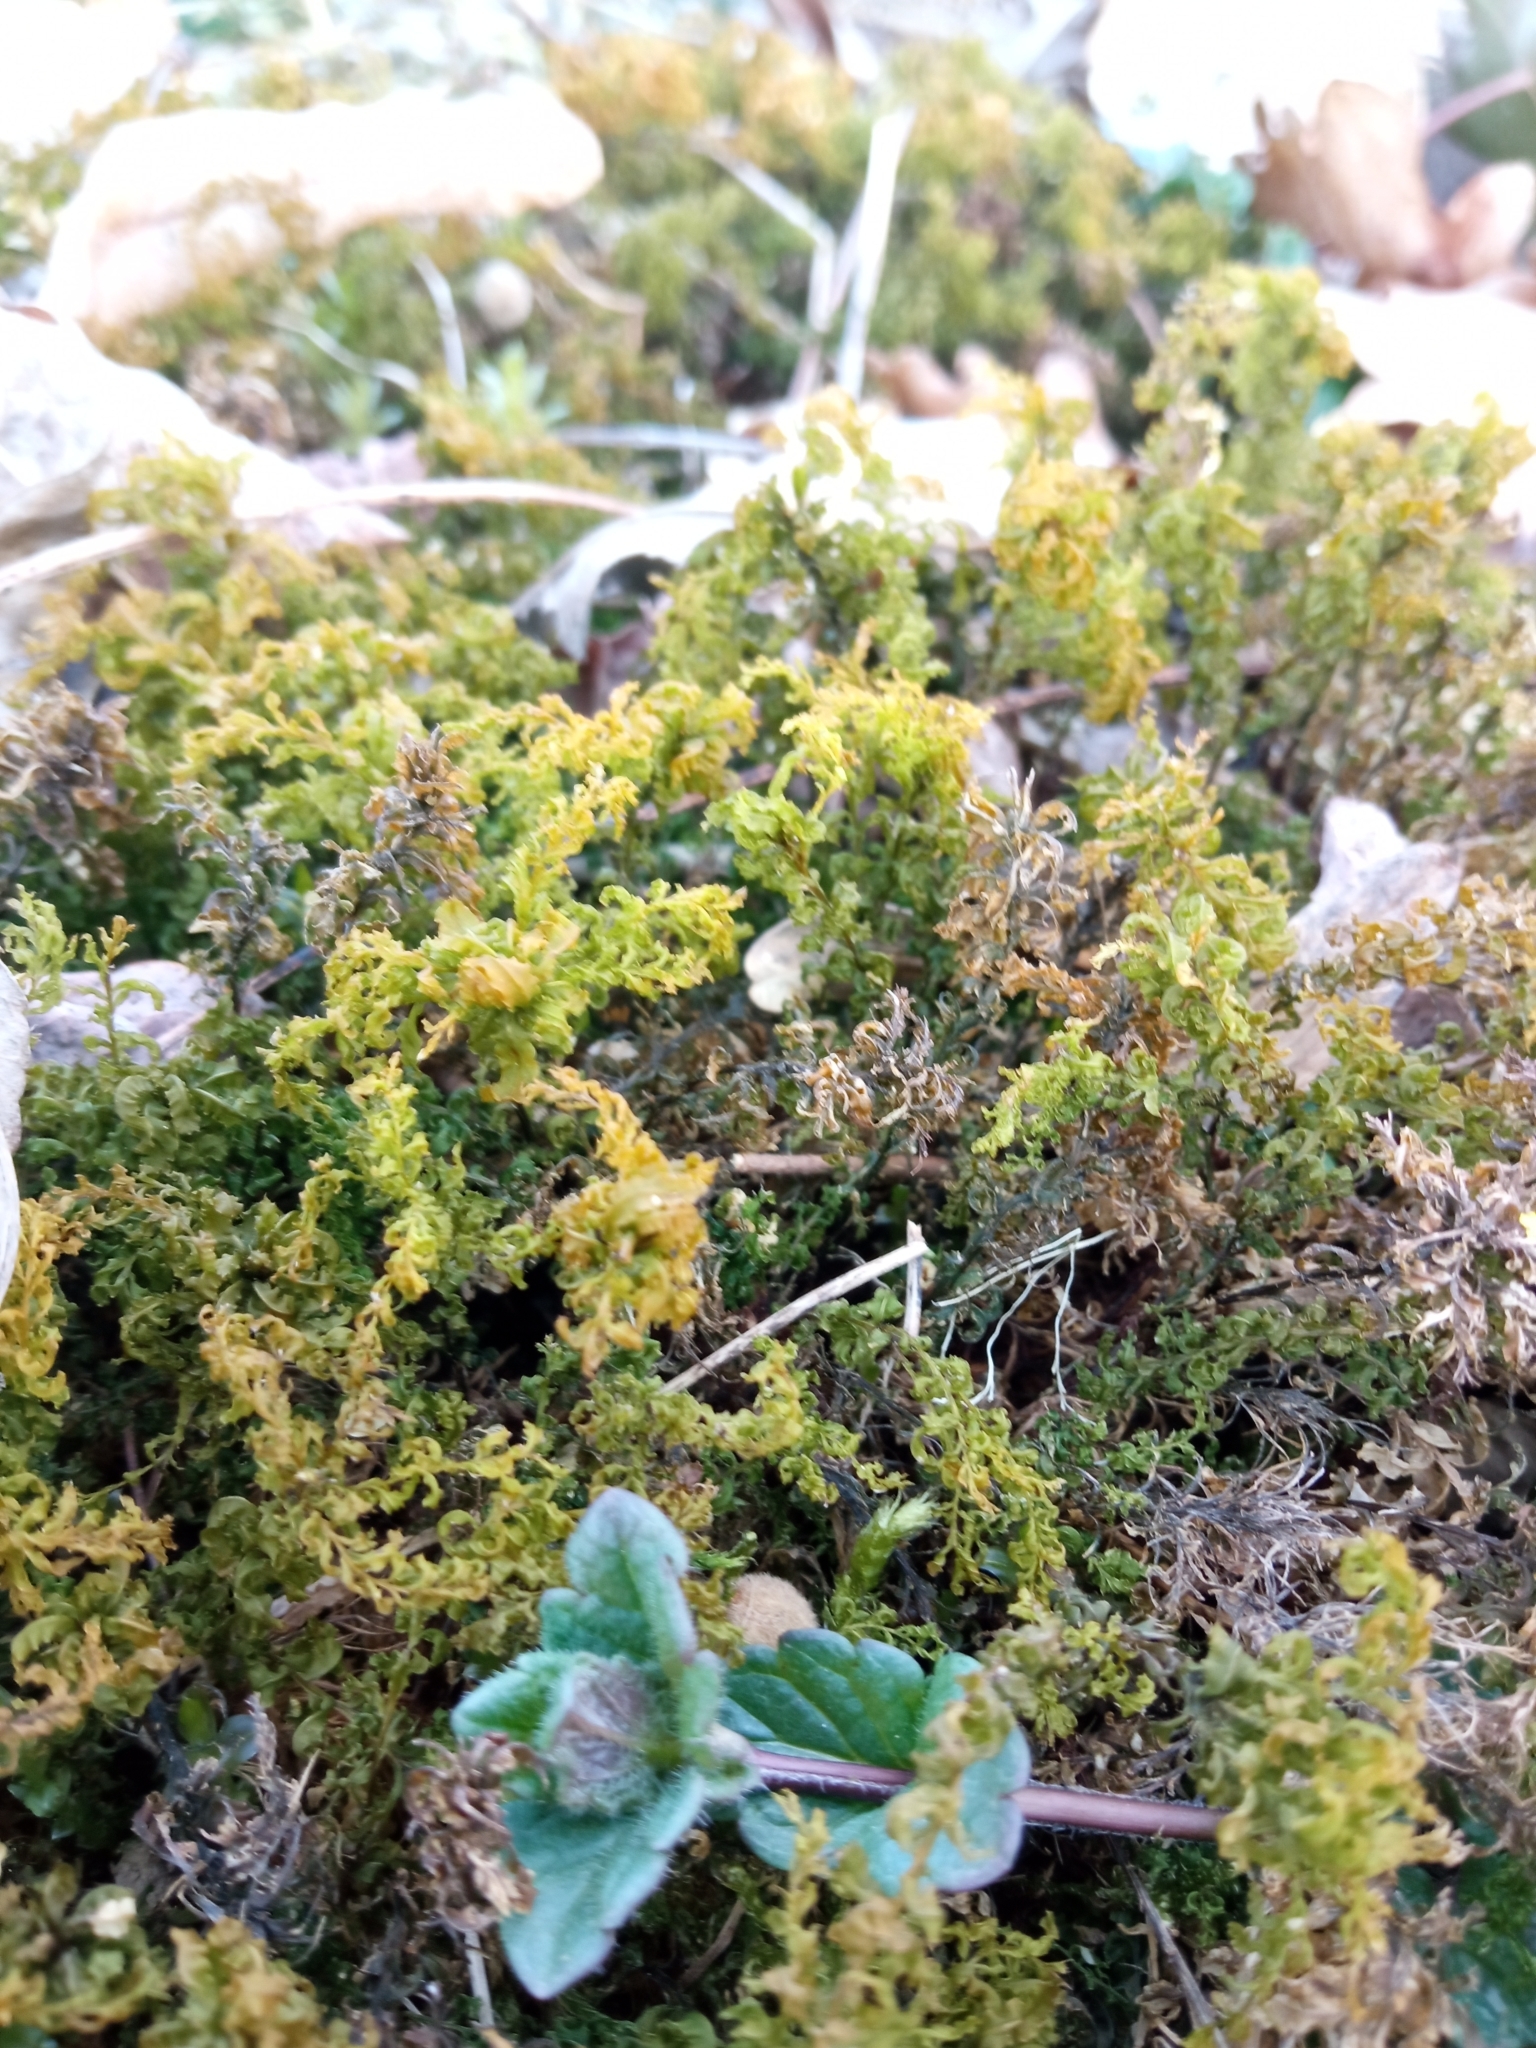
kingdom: Plantae
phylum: Bryophyta
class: Bryopsida
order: Bryales
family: Mniaceae
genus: Plagiomnium
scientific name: Plagiomnium undulatum
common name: Hart's-tongue thyme-moss
